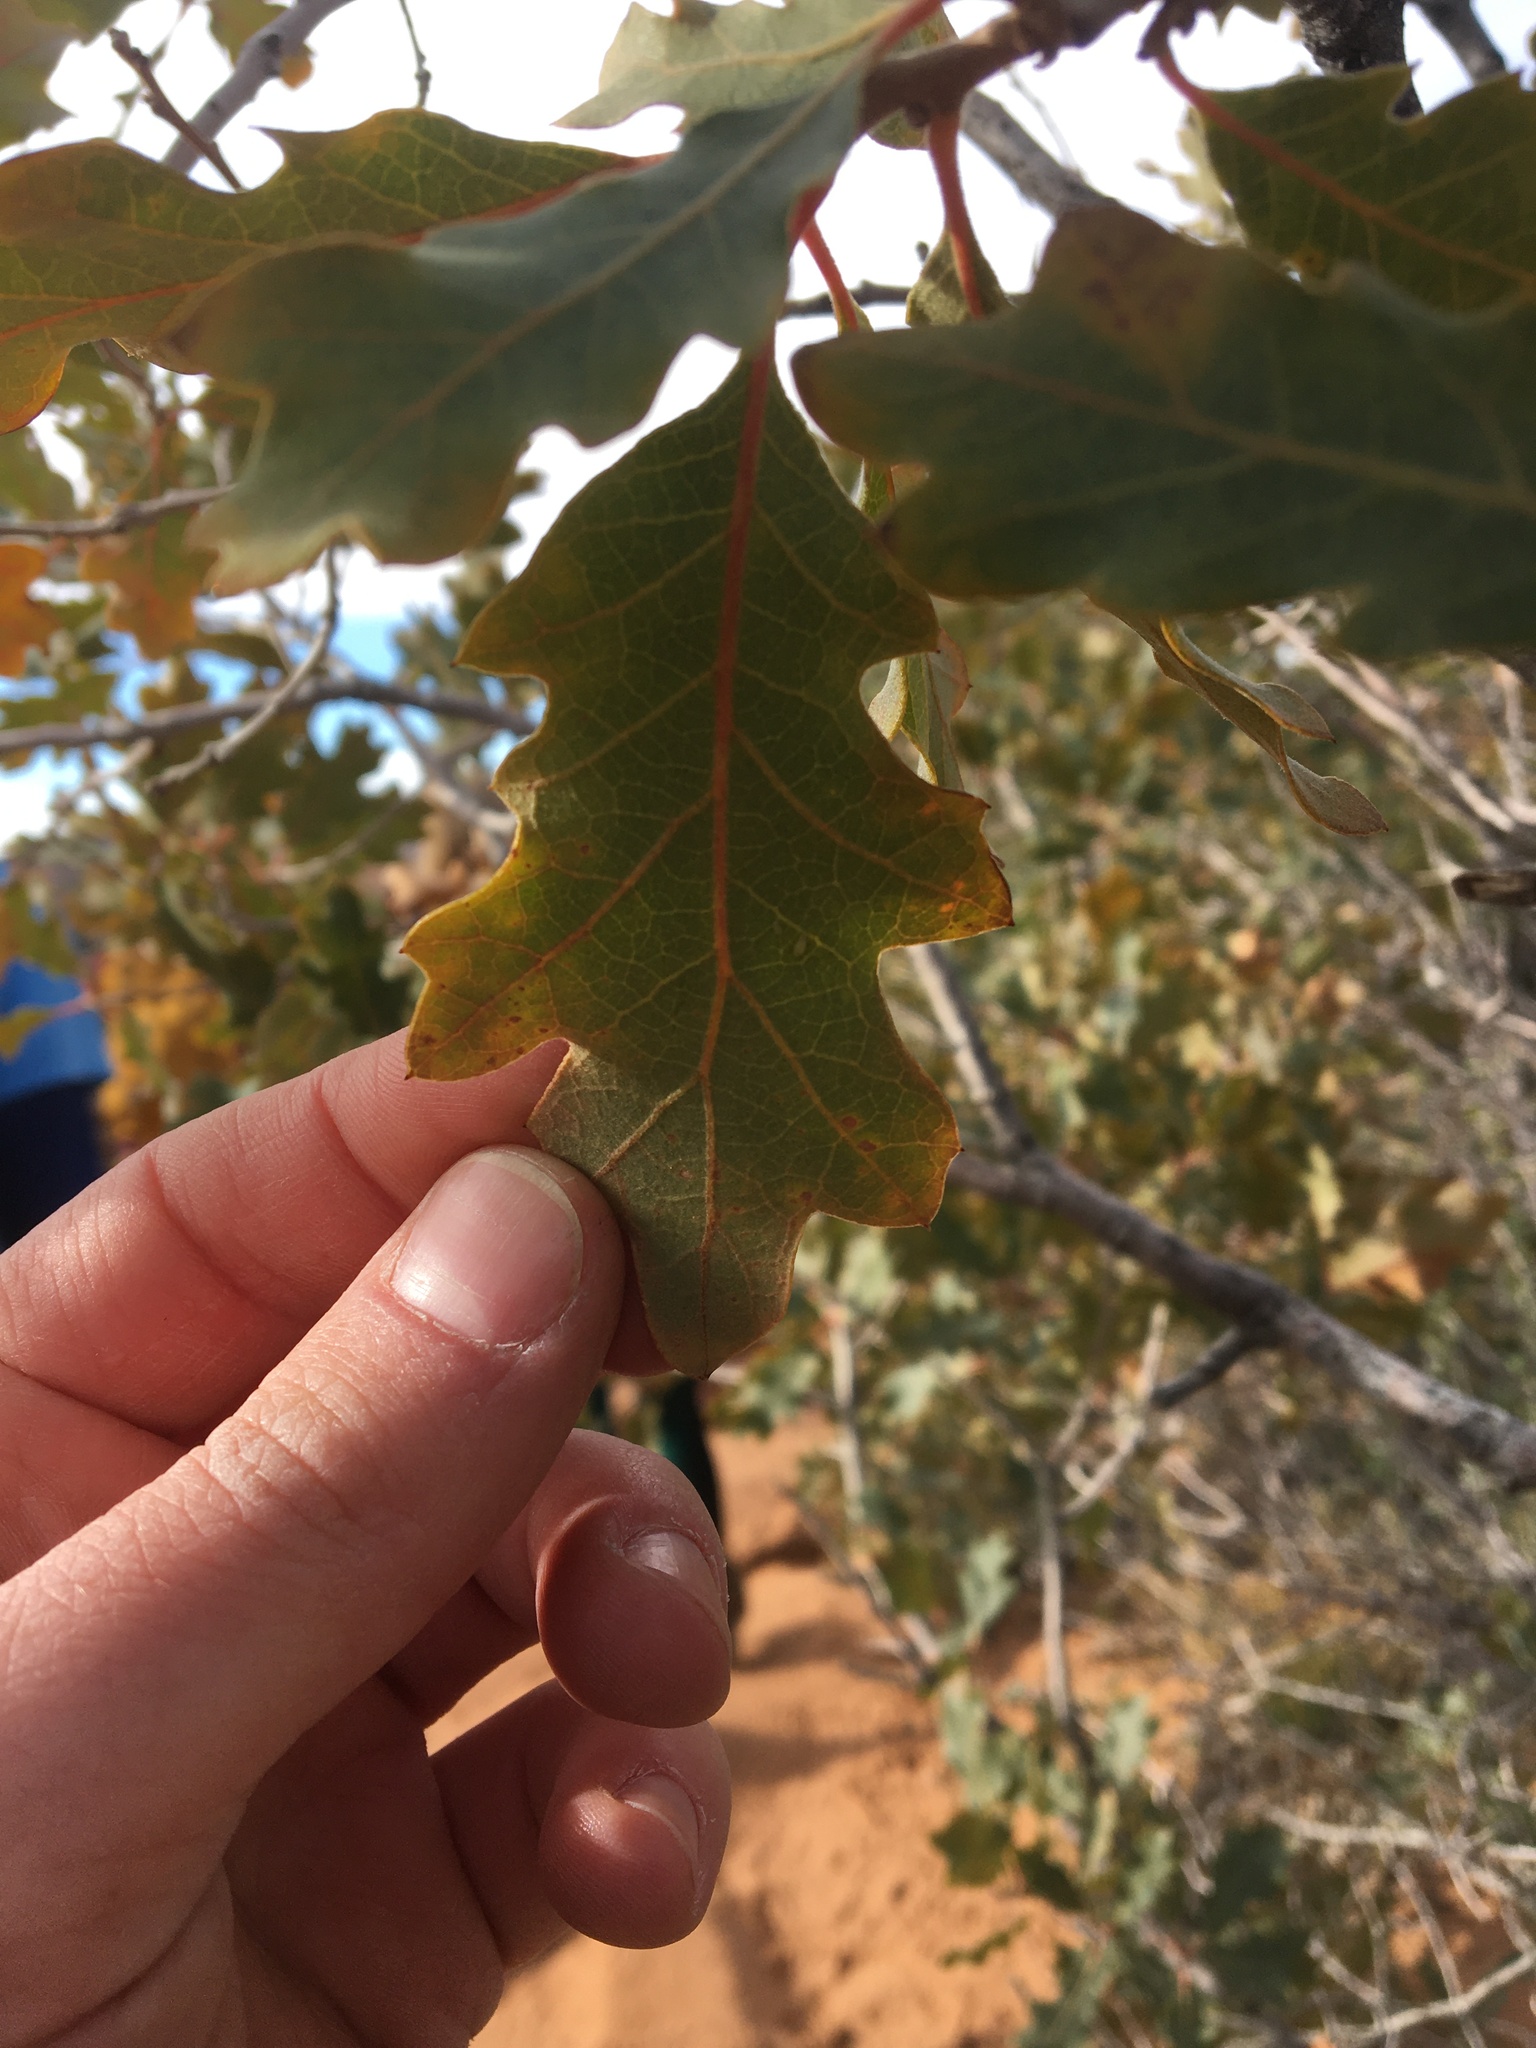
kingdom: Plantae
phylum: Tracheophyta
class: Magnoliopsida
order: Fagales
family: Fagaceae
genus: Quercus
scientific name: Quercus gambelii
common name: Gambel oak
